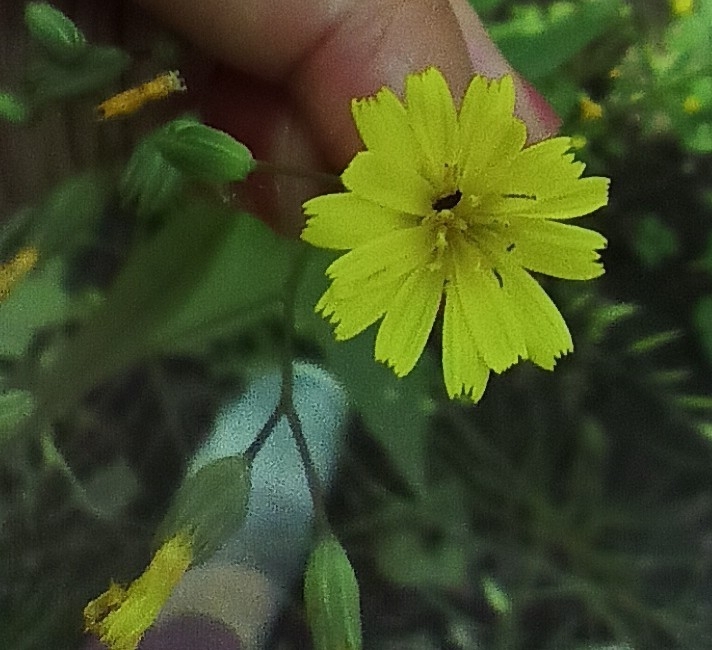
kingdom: Plantae
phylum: Tracheophyta
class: Magnoliopsida
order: Asterales
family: Asteraceae
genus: Lapsana
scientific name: Lapsana communis
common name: Nipplewort
